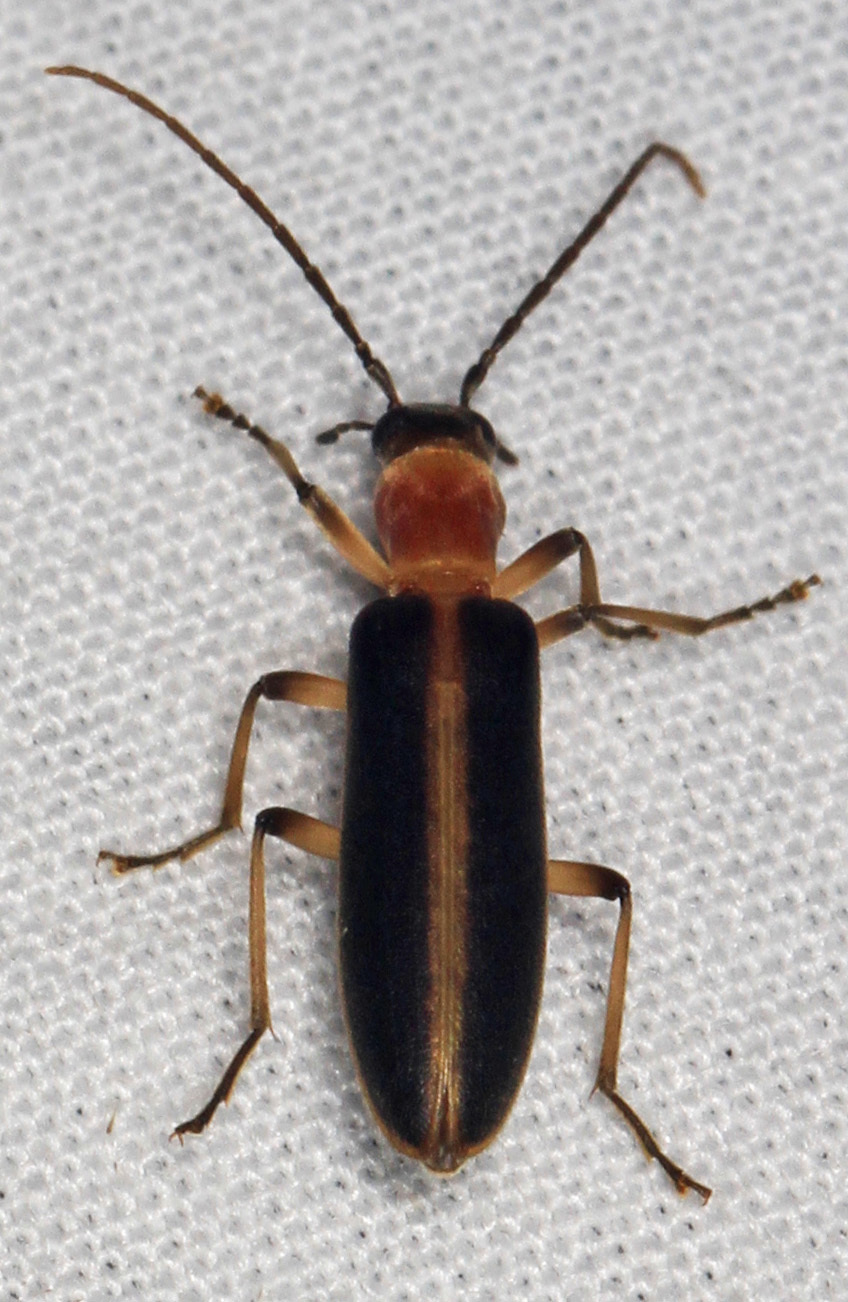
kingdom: Animalia
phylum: Arthropoda
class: Insecta
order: Coleoptera
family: Oedemeridae
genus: Oxycopis
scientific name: Oxycopis mimetica
